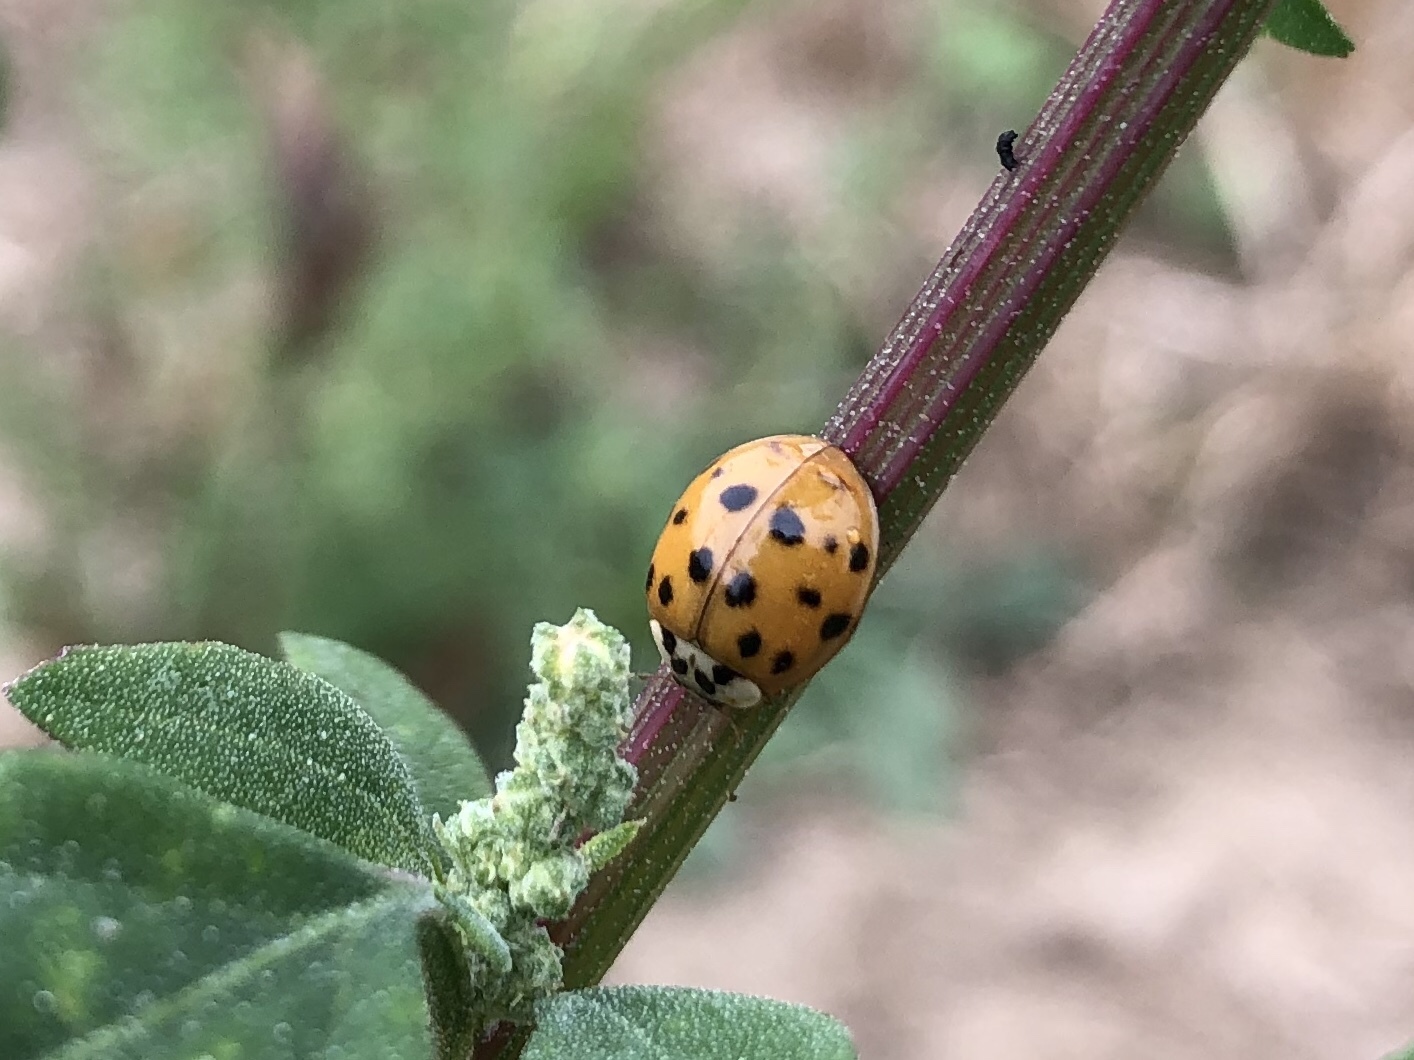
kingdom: Animalia
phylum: Arthropoda
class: Insecta
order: Coleoptera
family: Coccinellidae
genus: Harmonia
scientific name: Harmonia axyridis
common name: Harlequin ladybird
